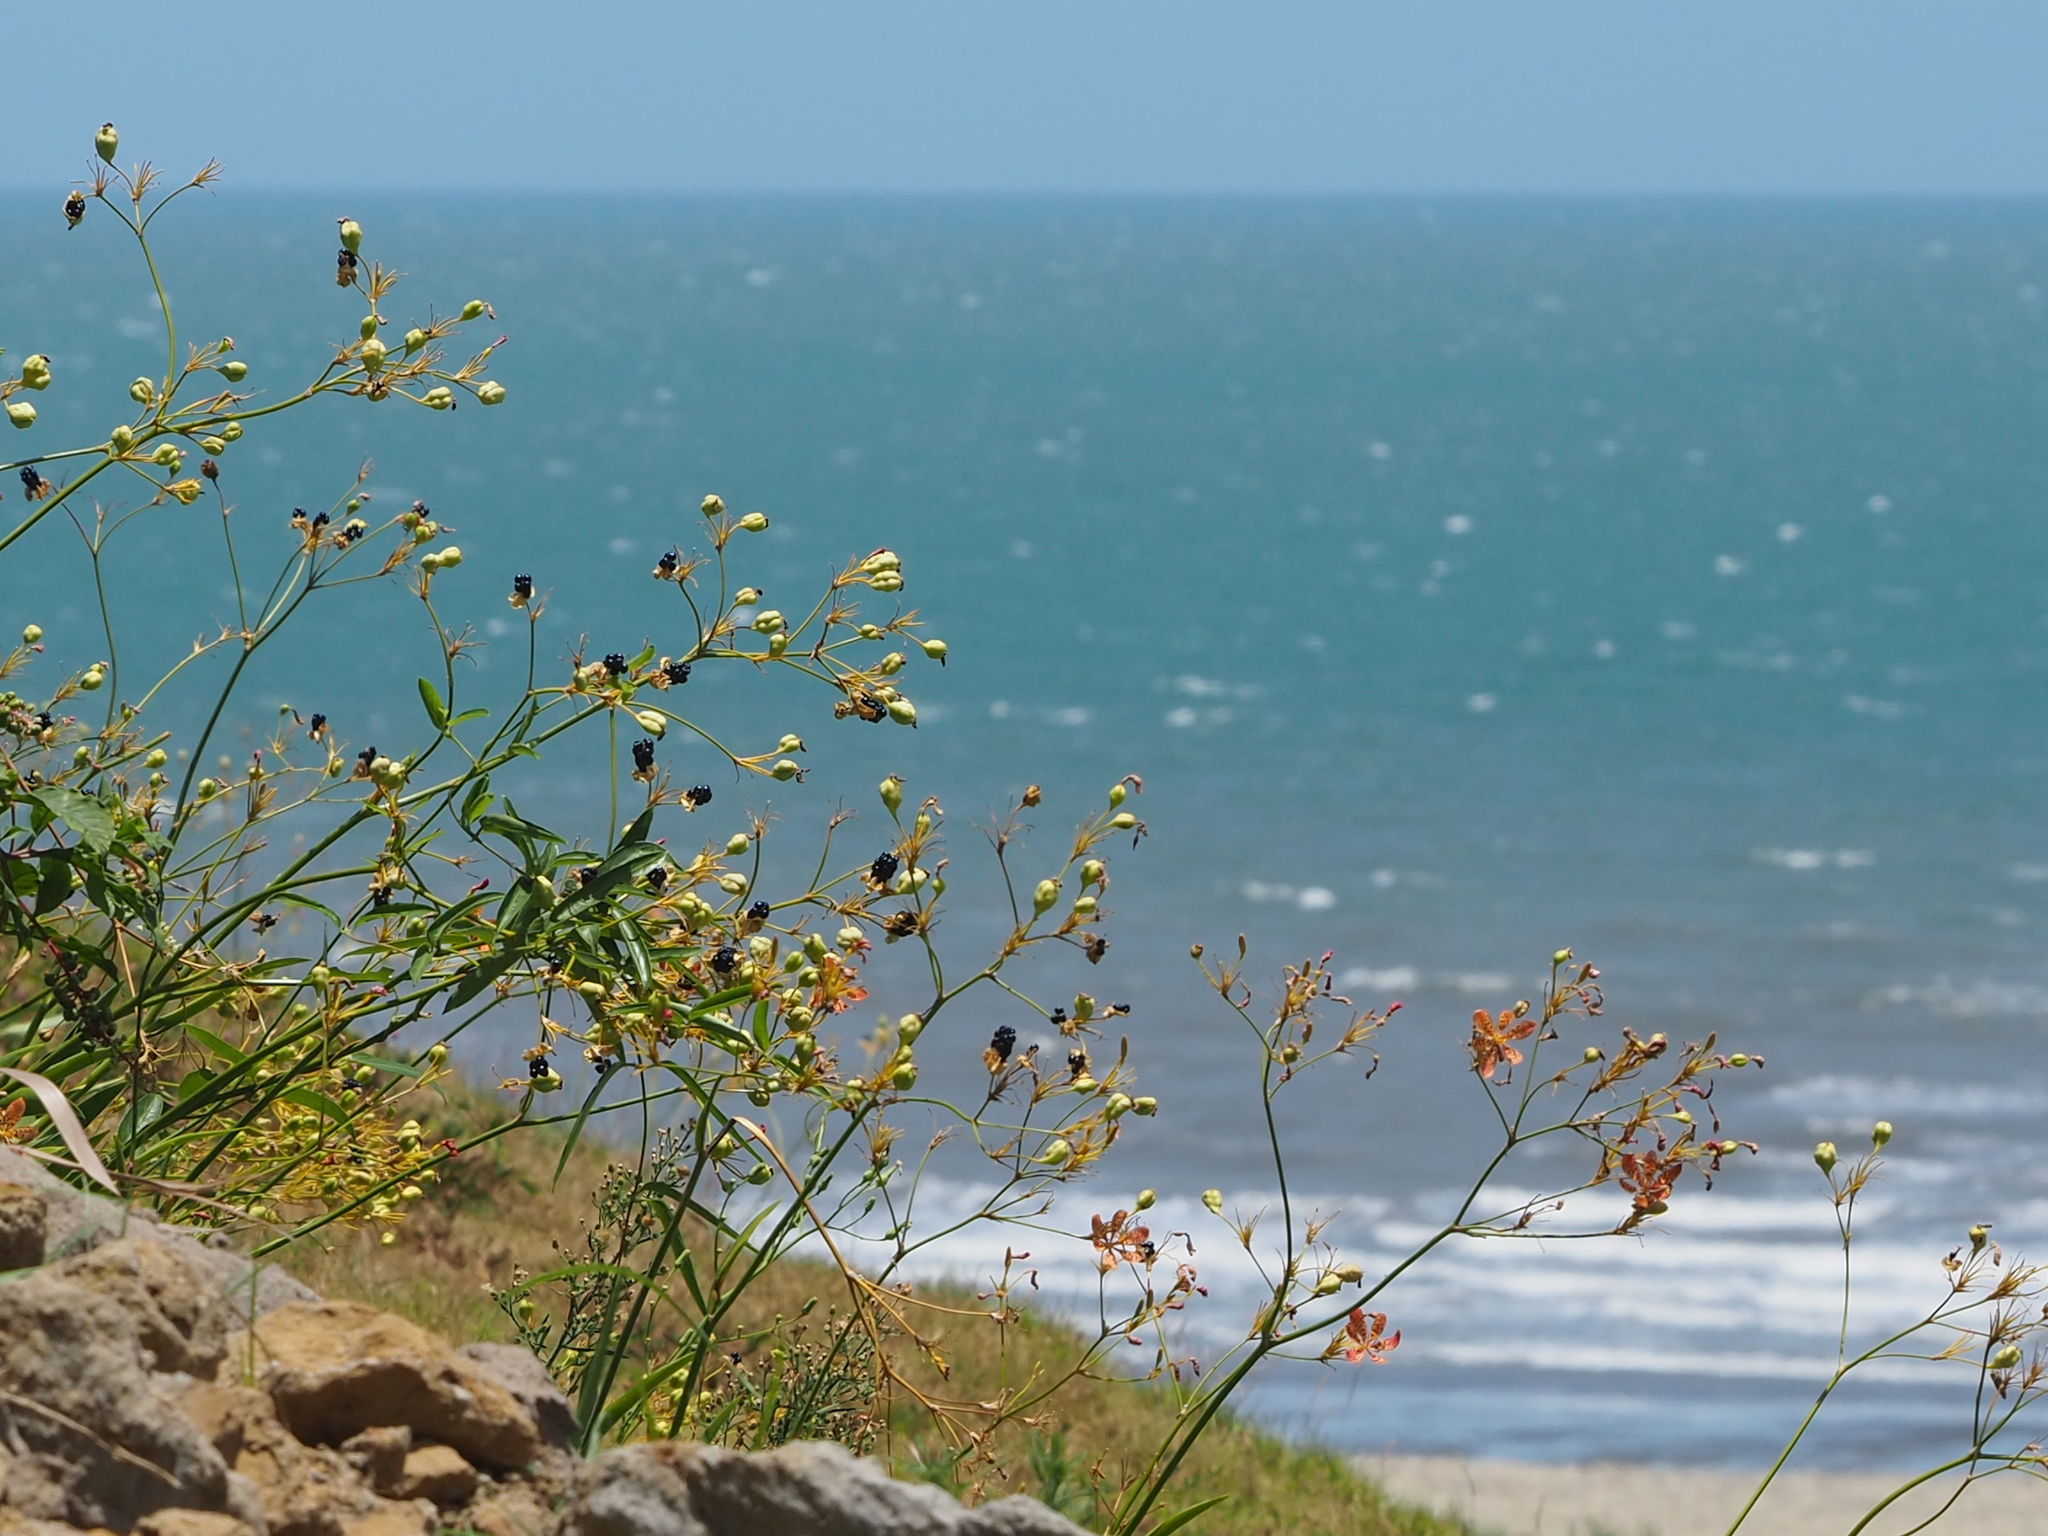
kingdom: Plantae
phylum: Tracheophyta
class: Liliopsida
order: Asparagales
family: Iridaceae
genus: Iris
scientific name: Iris domestica
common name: Belamcanda
